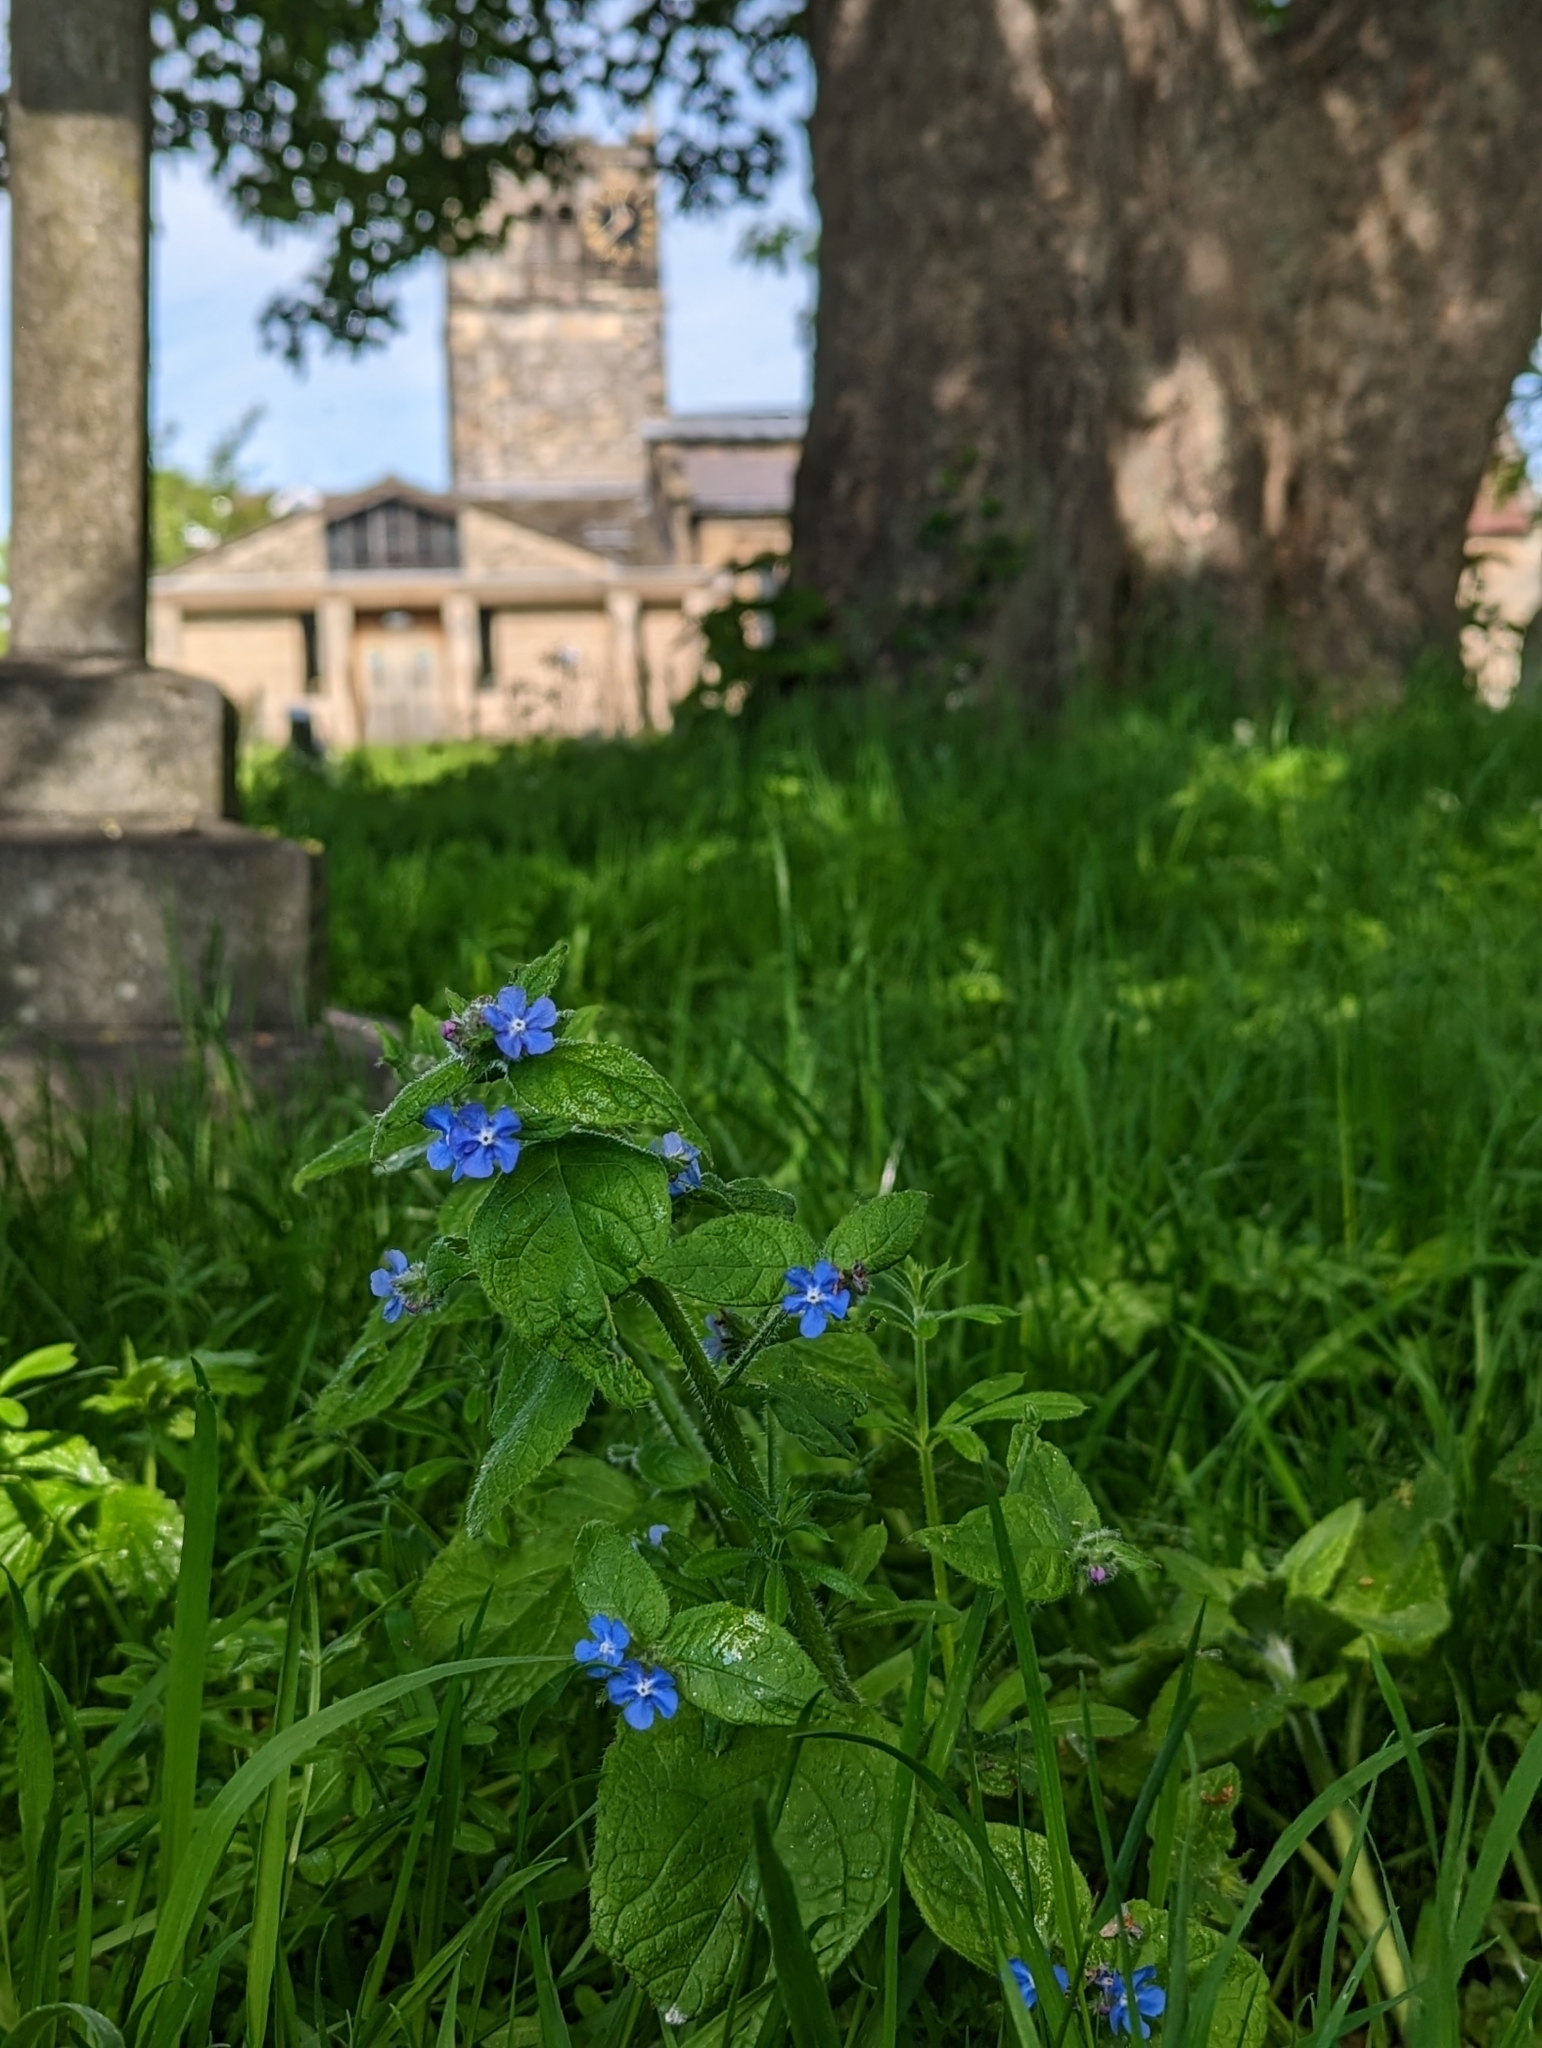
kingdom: Plantae
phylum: Tracheophyta
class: Magnoliopsida
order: Boraginales
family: Boraginaceae
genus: Pentaglottis
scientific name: Pentaglottis sempervirens
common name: Green alkanet
